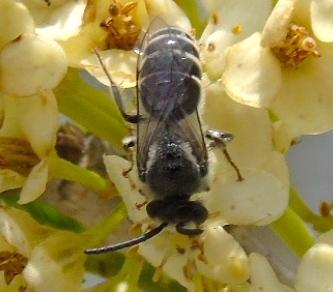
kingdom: Animalia
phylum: Arthropoda
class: Insecta
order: Hymenoptera
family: Colletidae
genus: Colletes
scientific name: Colletes
